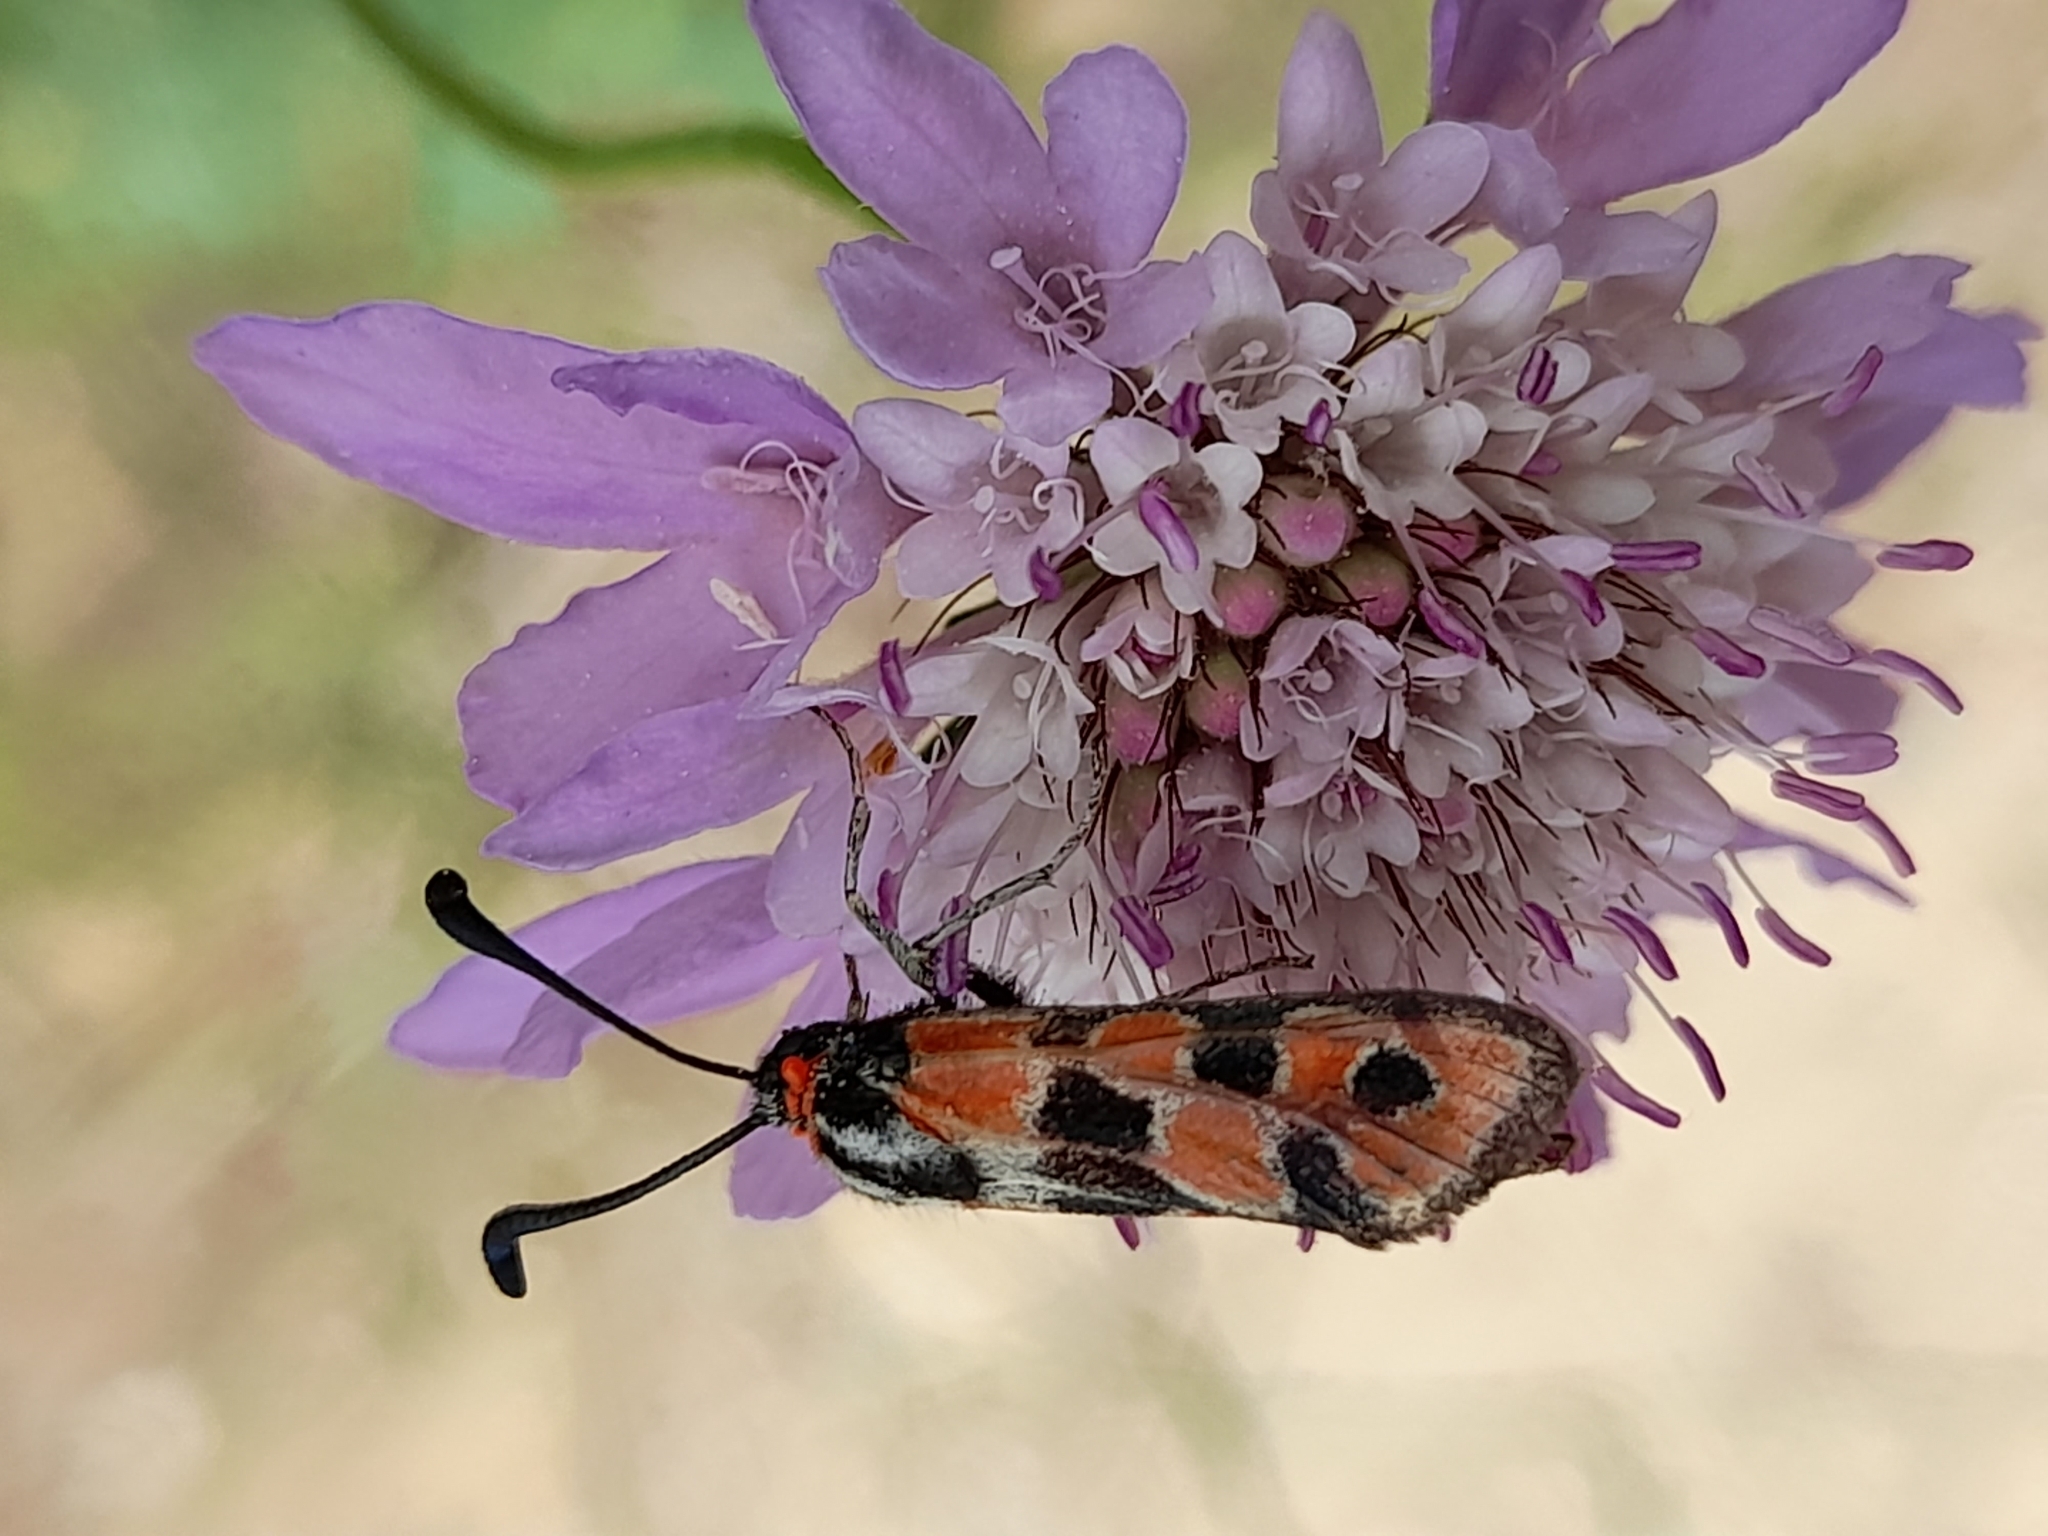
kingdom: Animalia
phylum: Arthropoda
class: Insecta
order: Lepidoptera
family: Zygaenidae
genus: Zygaena
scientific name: Zygaena fausta
